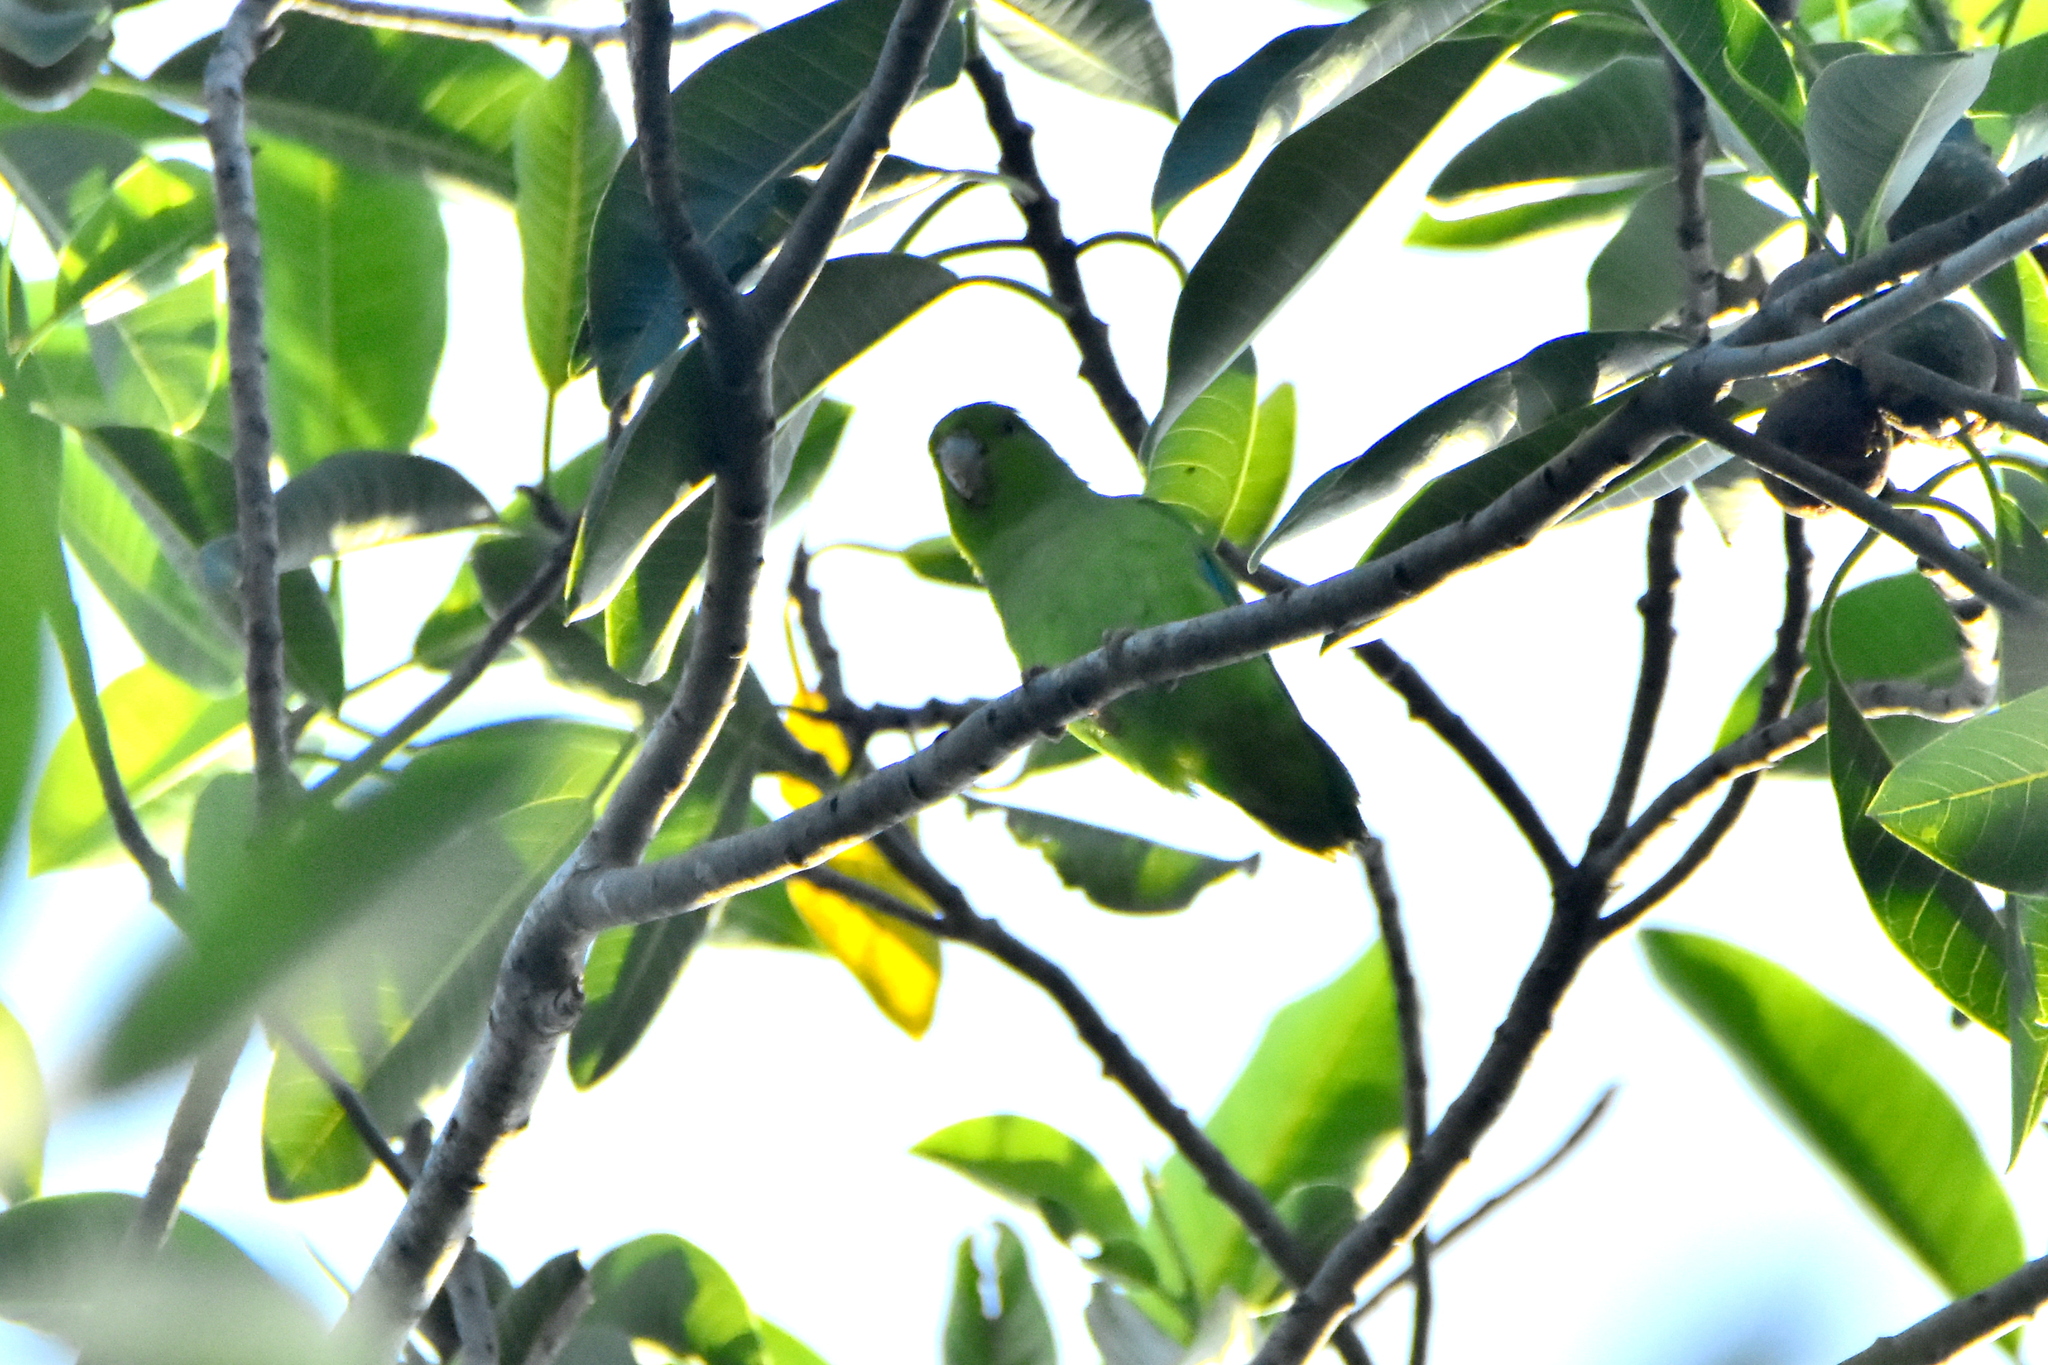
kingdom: Animalia
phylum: Chordata
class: Aves
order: Psittaciformes
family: Psittacidae
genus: Forpus
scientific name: Forpus cyanopygius
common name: Mexican parrotlet
